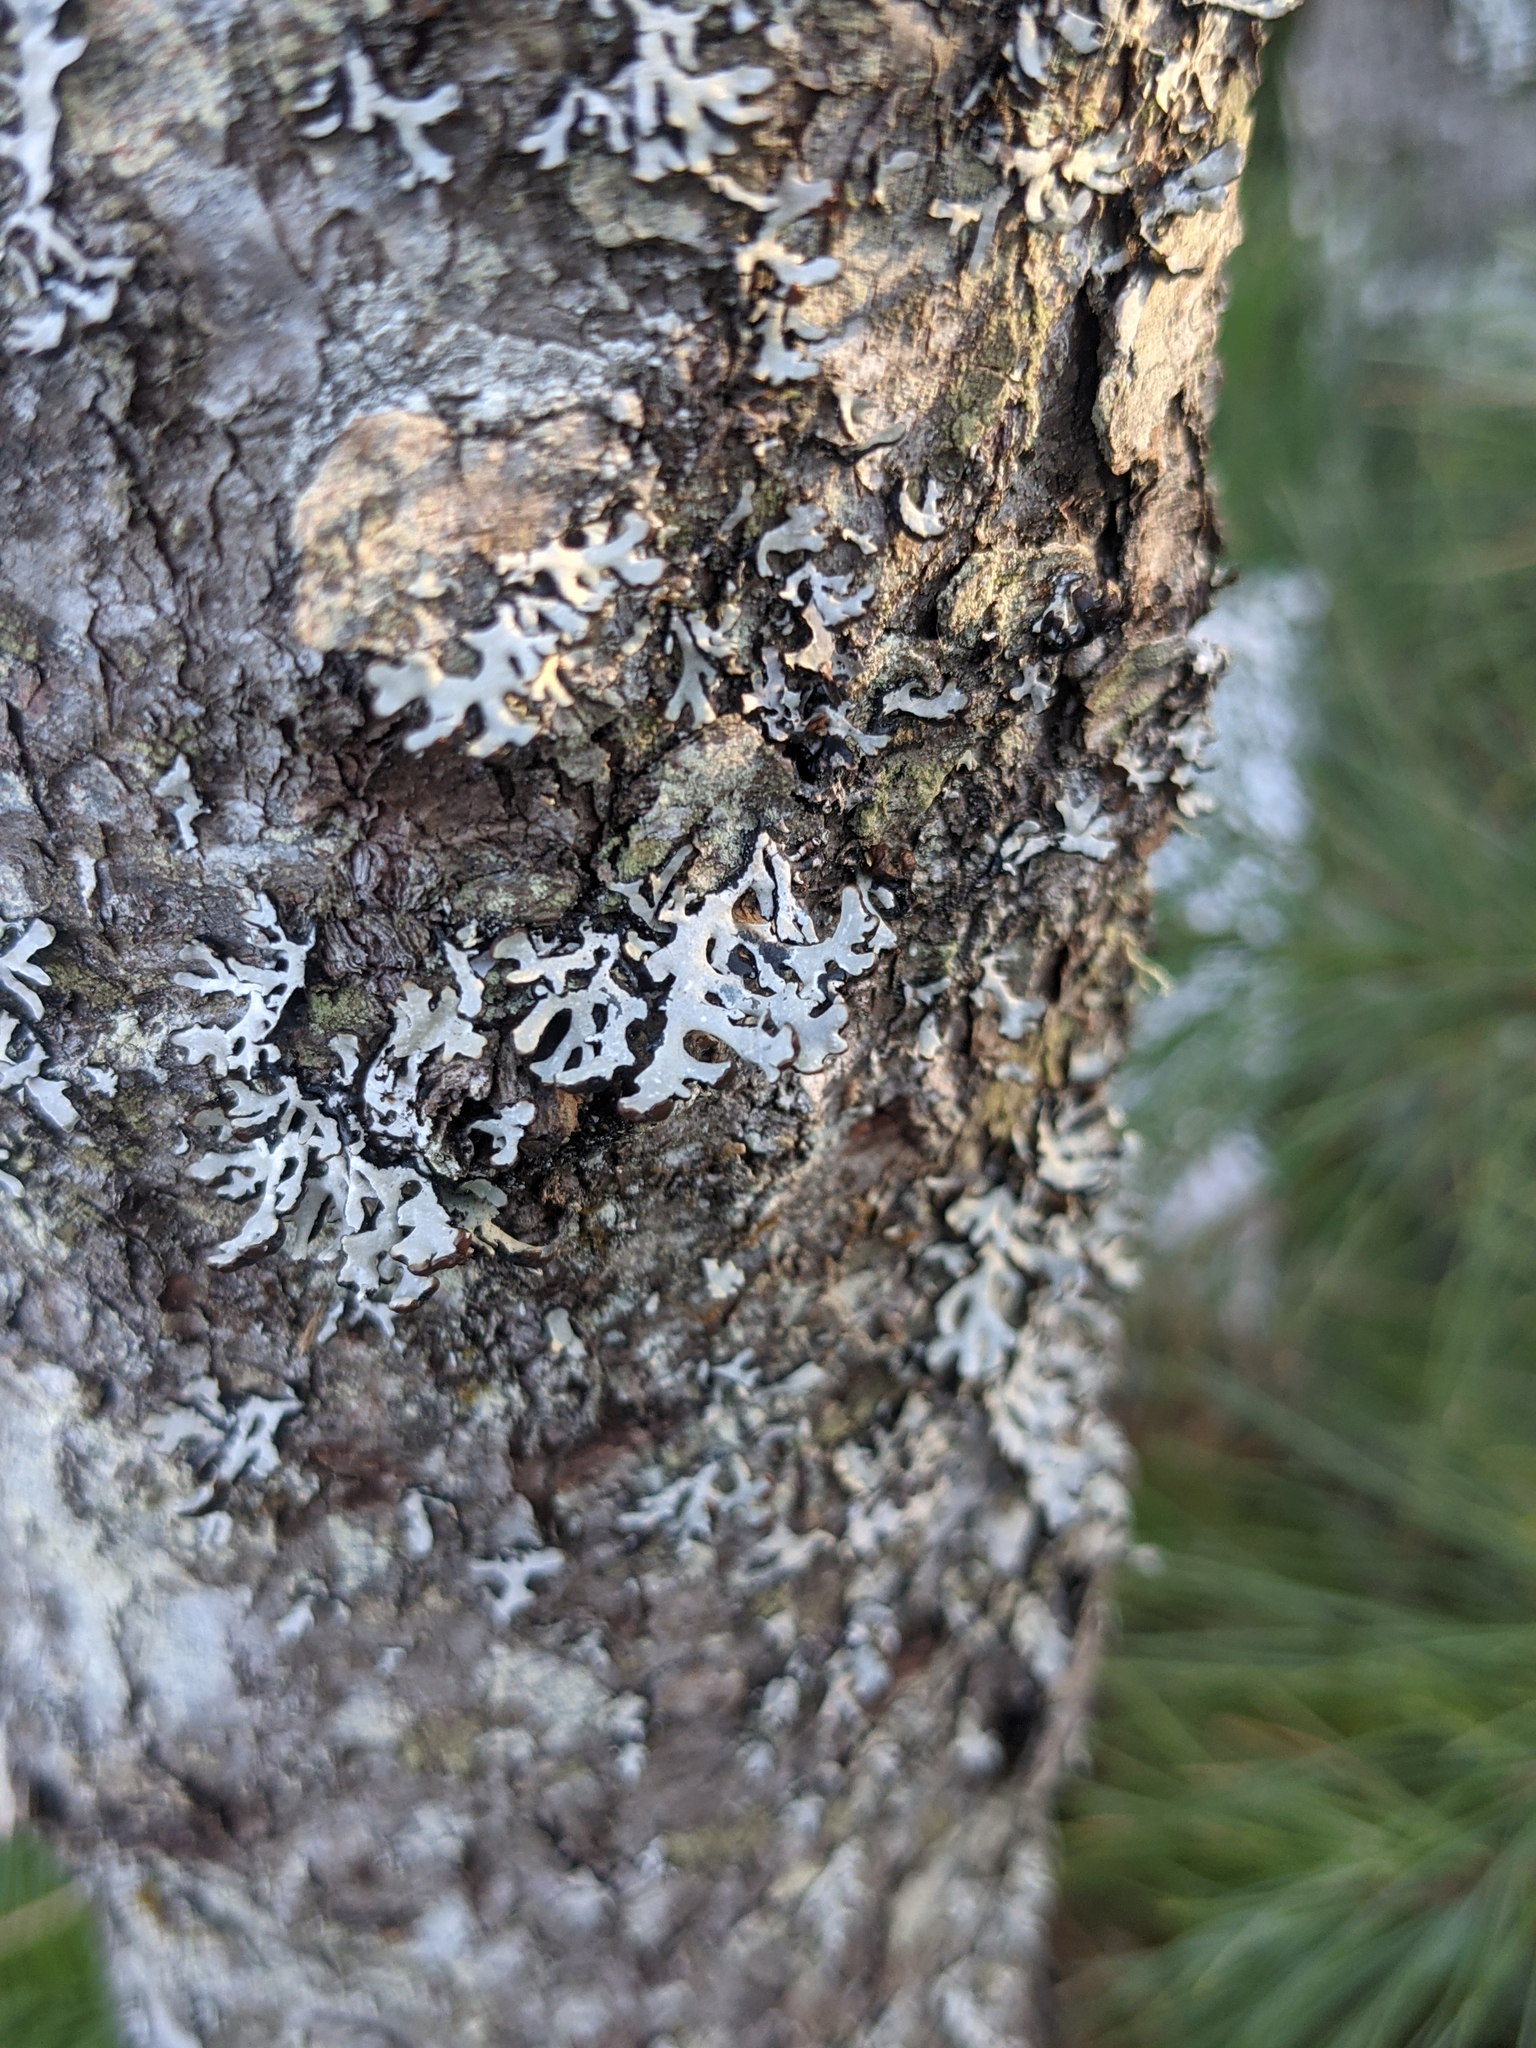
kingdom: Fungi
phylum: Ascomycota
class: Lecanoromycetes
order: Lecanorales
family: Parmeliaceae
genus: Hypogymnia
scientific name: Hypogymnia physodes
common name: Dark crottle
